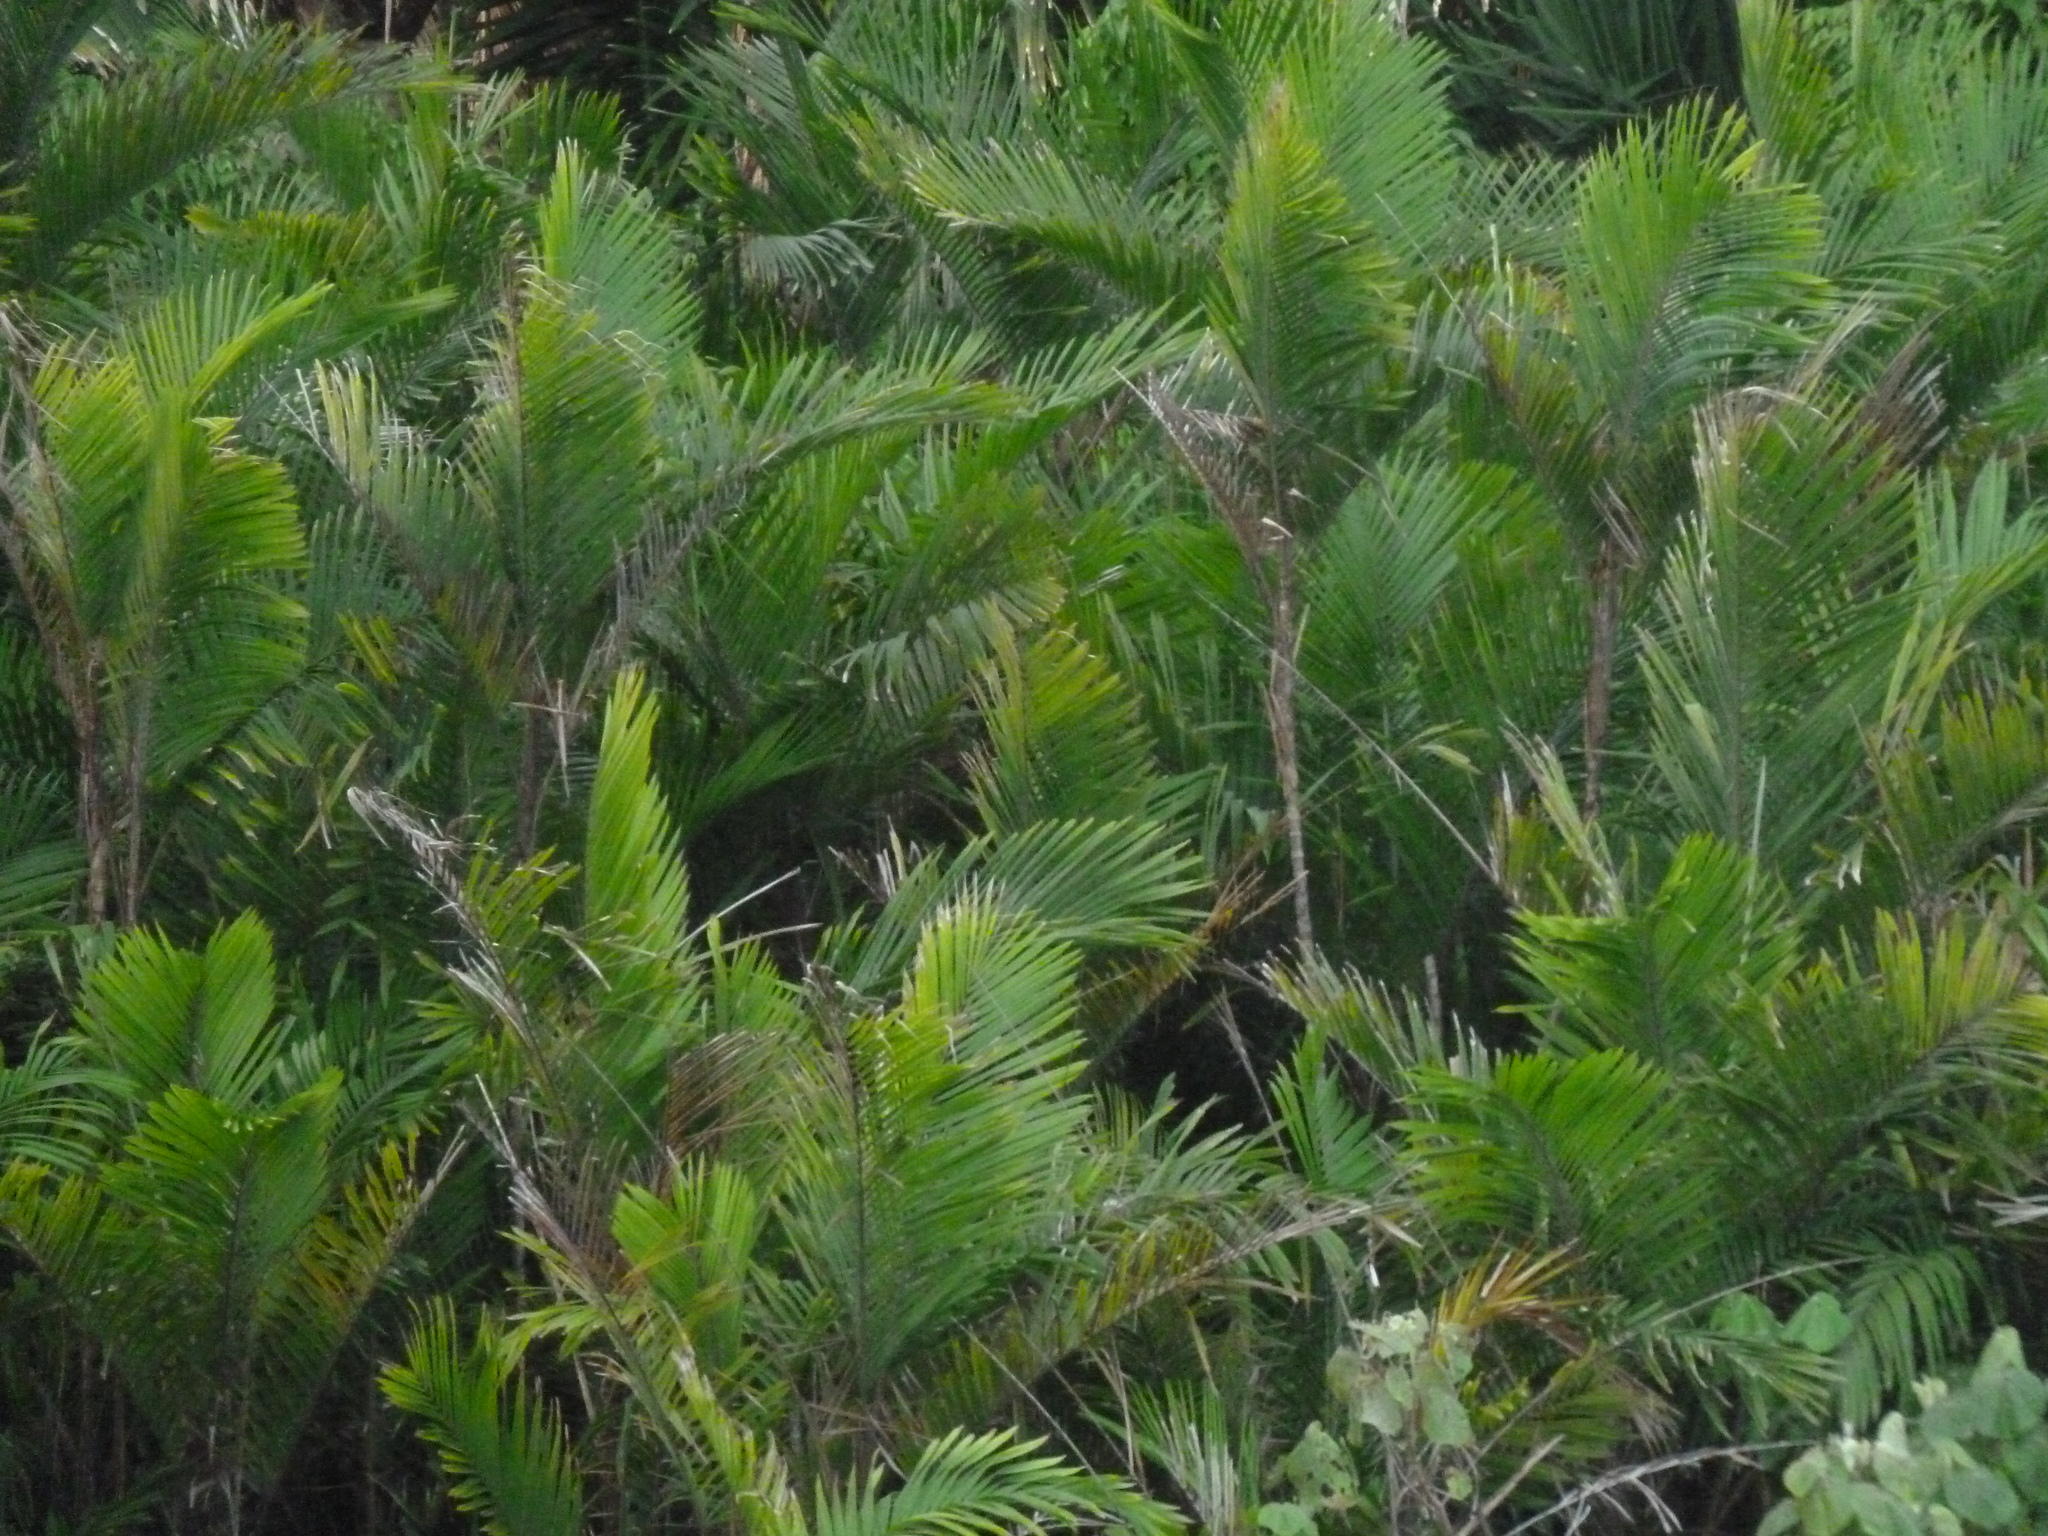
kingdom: Plantae
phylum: Tracheophyta
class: Liliopsida
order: Arecales
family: Arecaceae
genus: Bactris
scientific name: Bactris maraja
